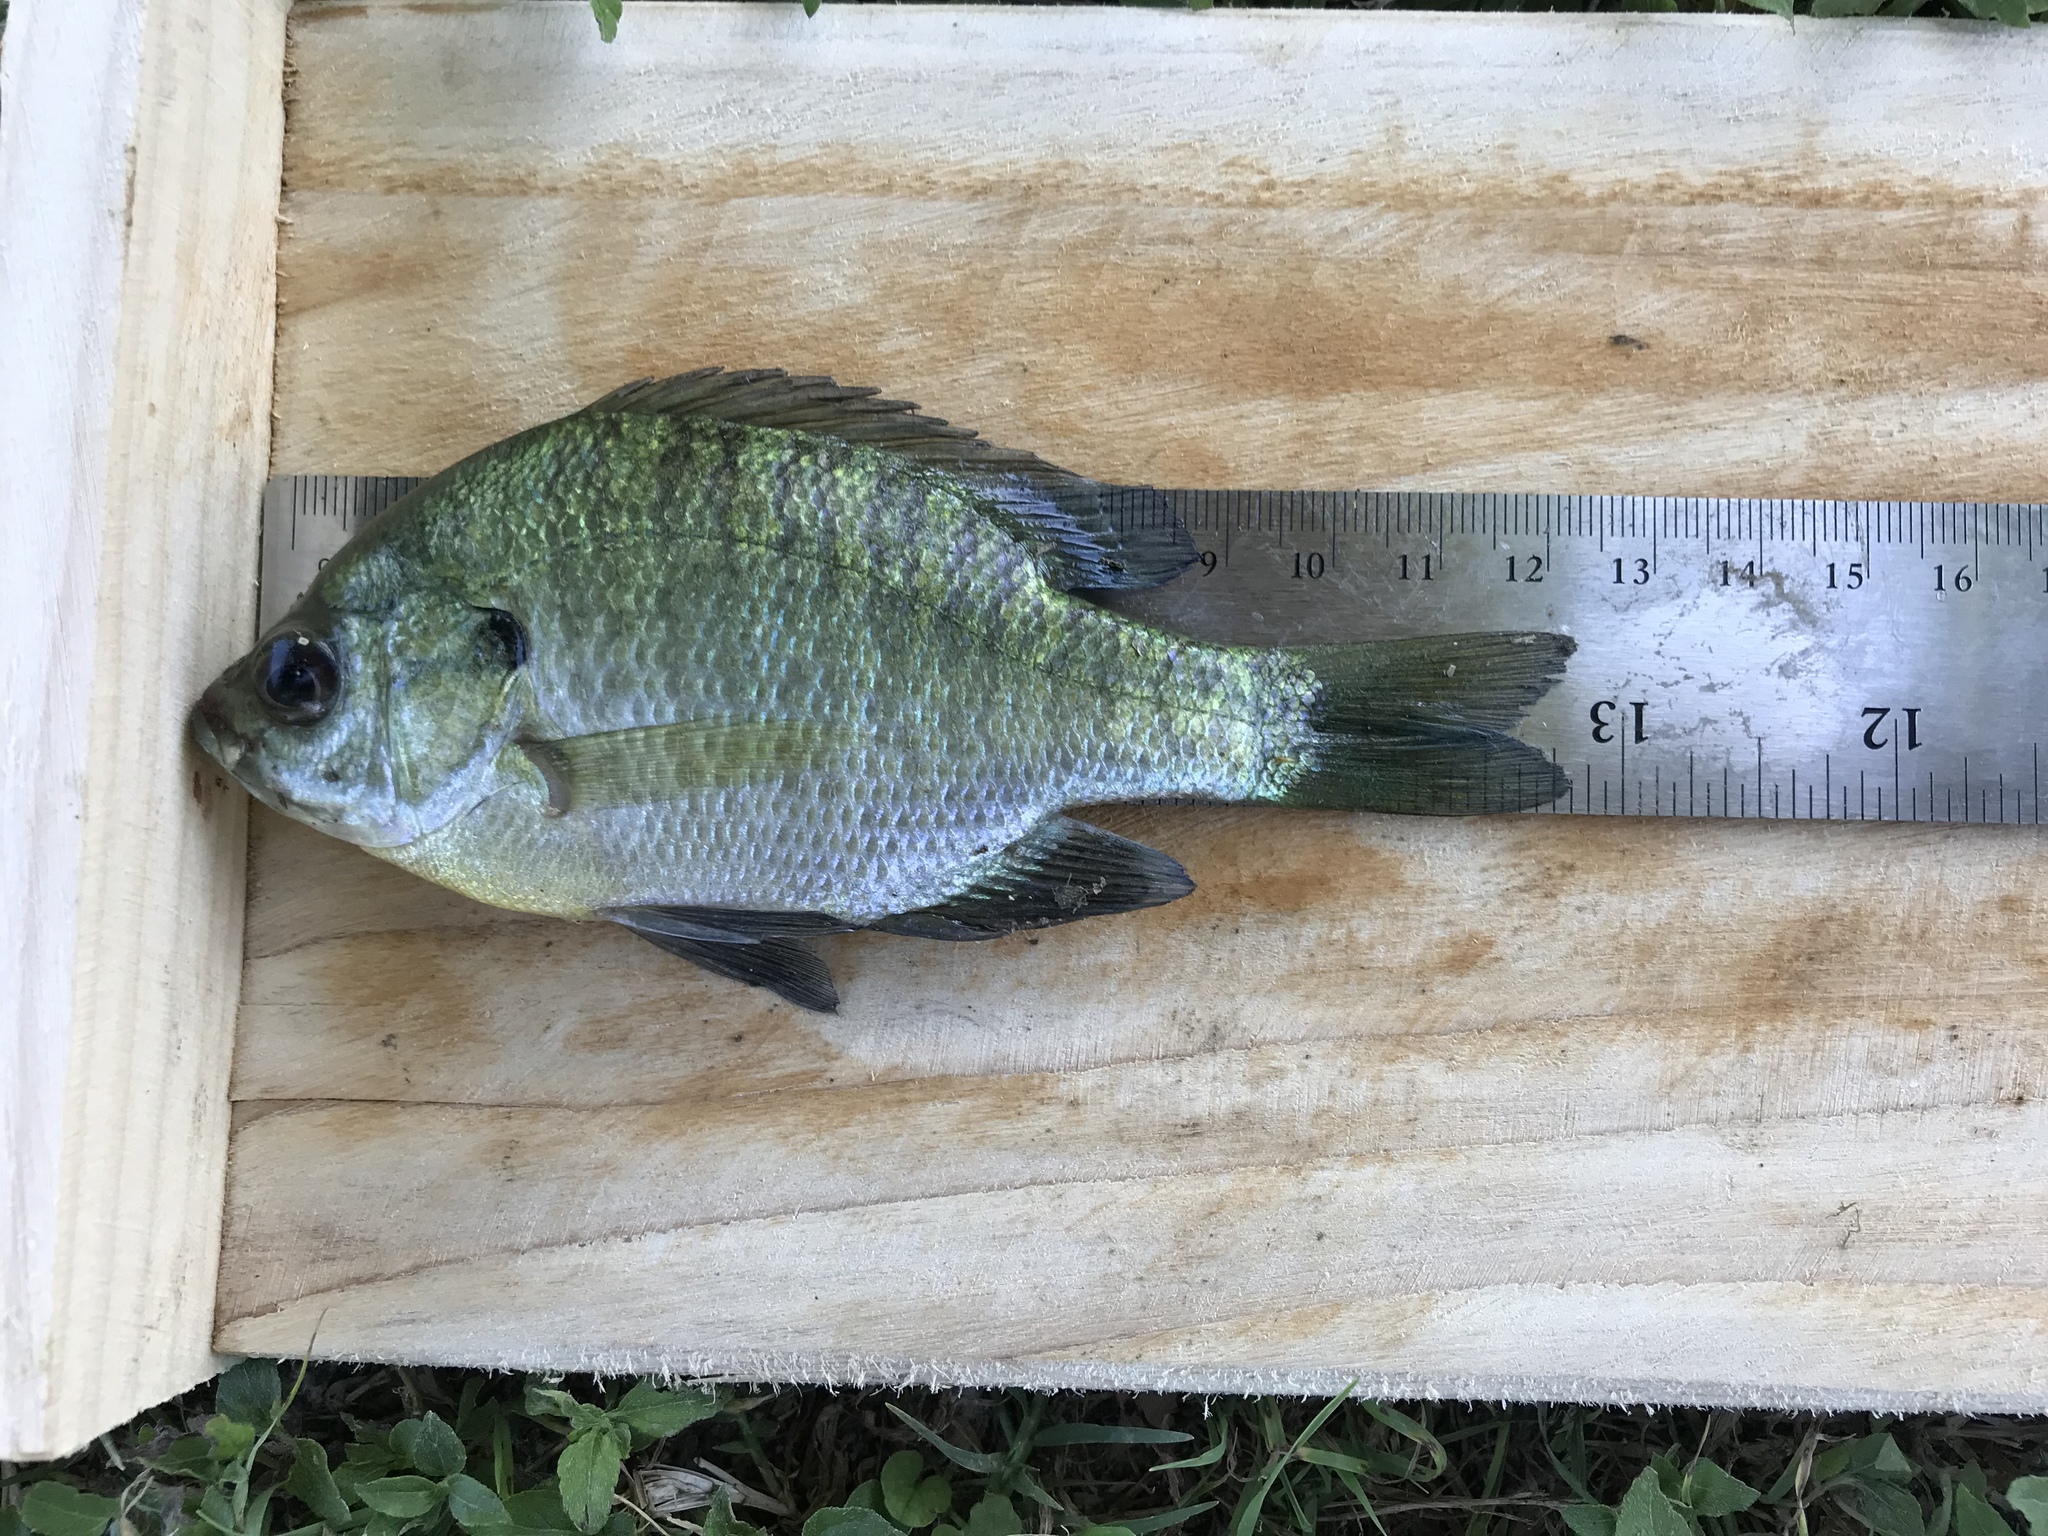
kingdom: Animalia
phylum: Chordata
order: Perciformes
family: Centrarchidae
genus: Lepomis
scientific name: Lepomis macrochirus
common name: Bluegill
